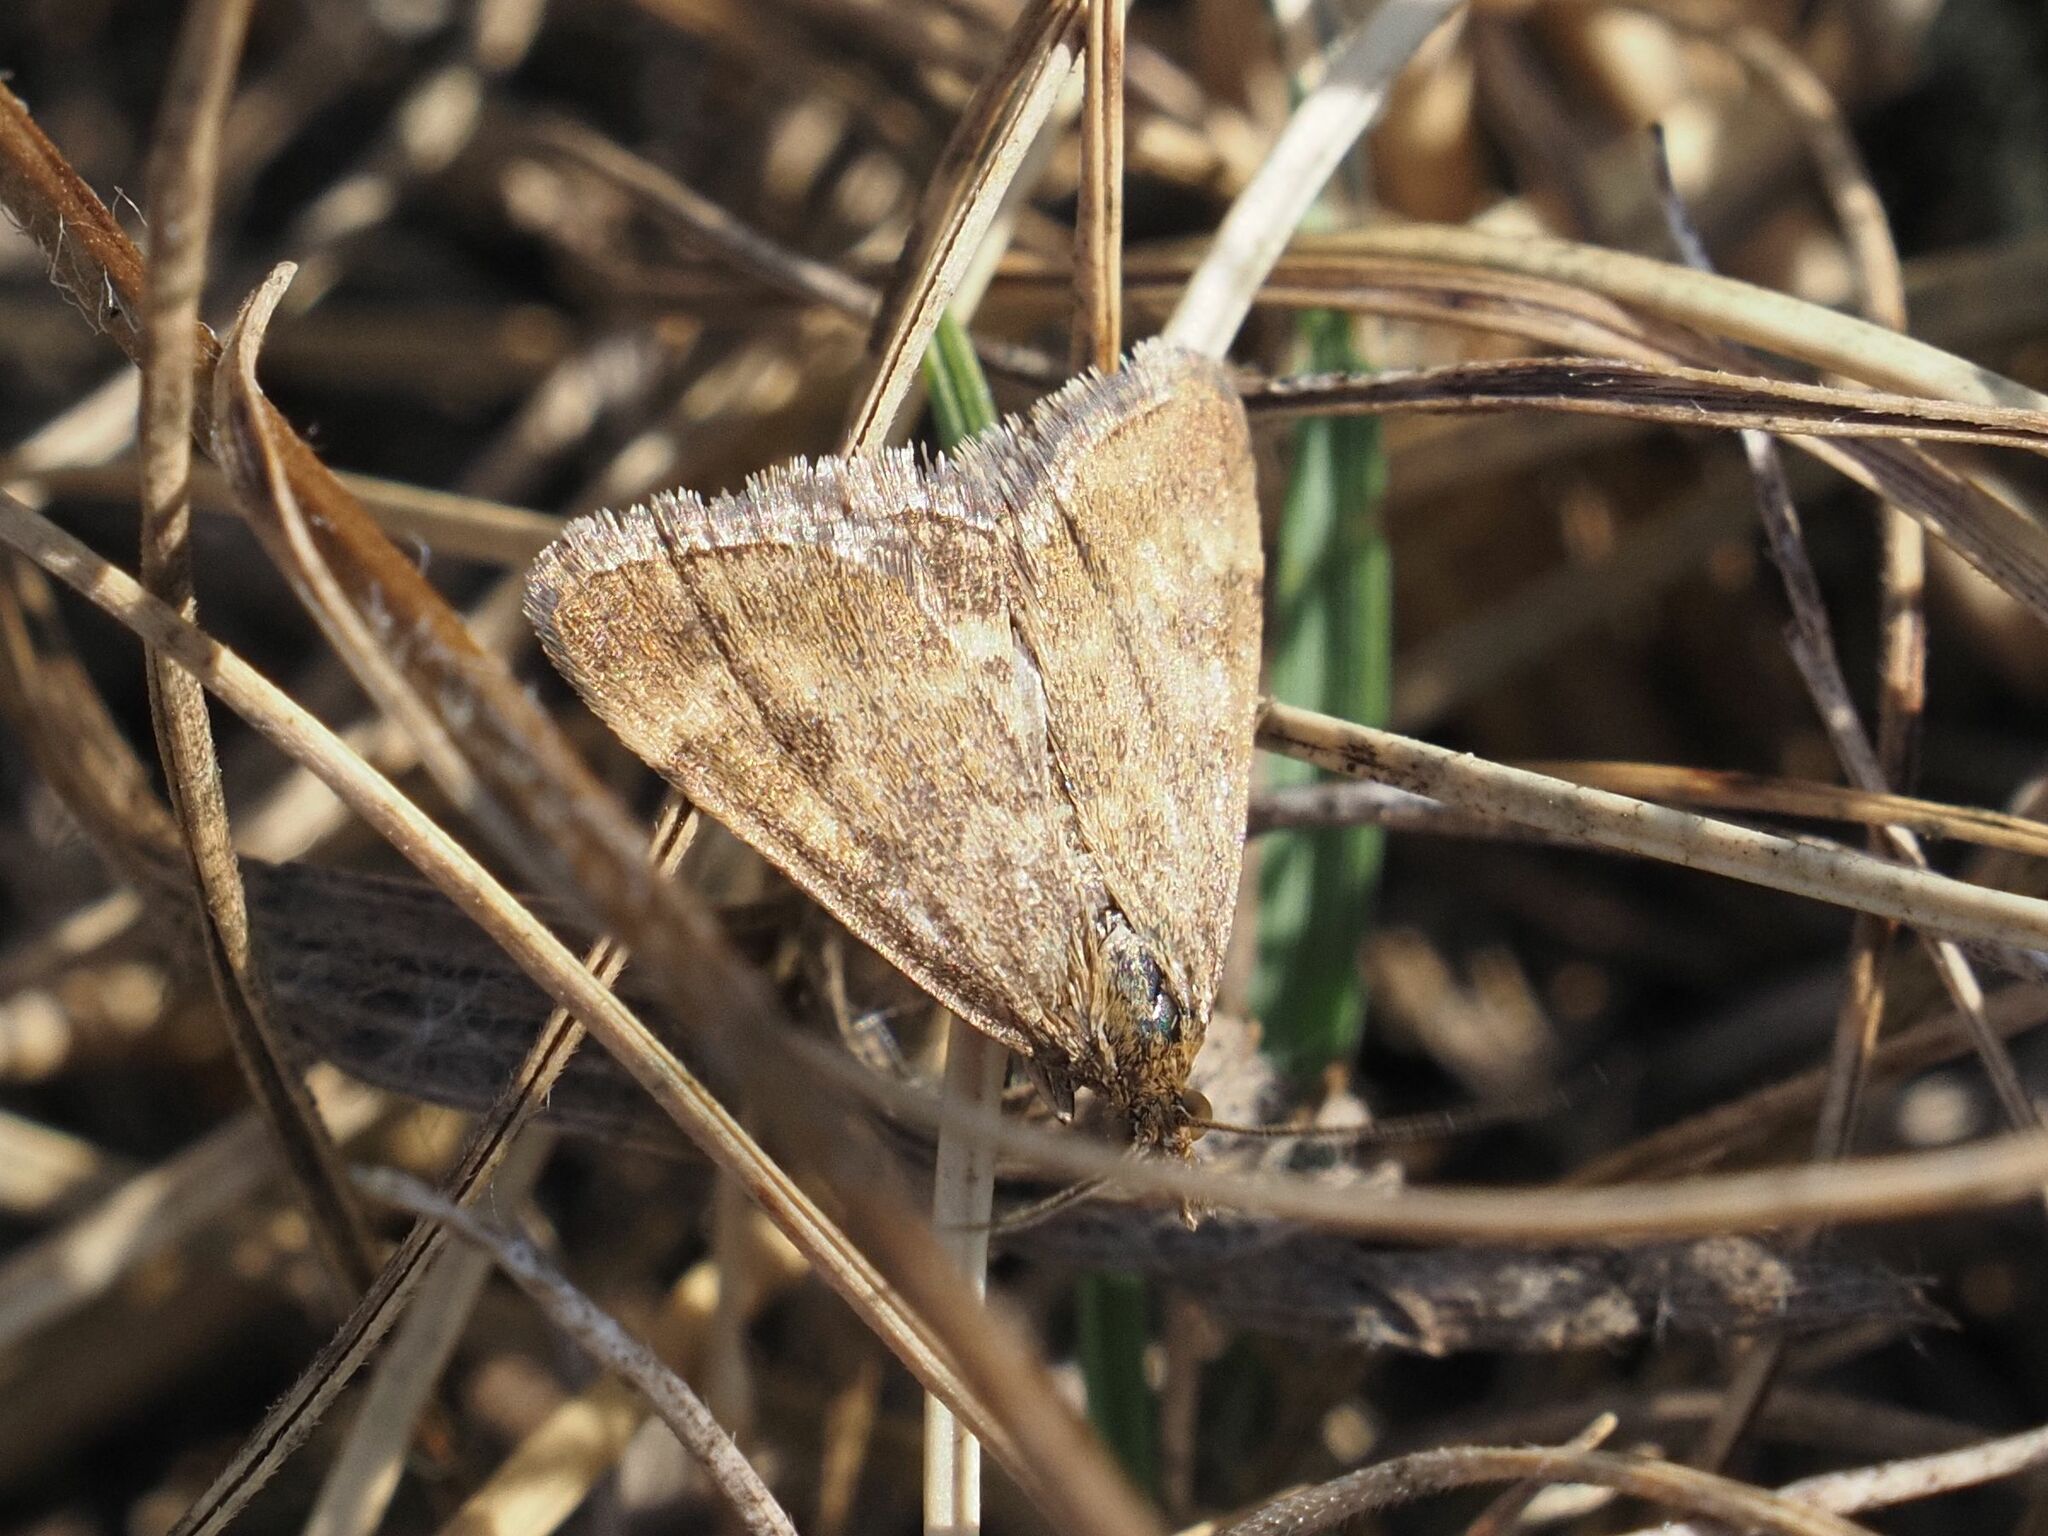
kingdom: Animalia
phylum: Arthropoda
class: Insecta
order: Lepidoptera
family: Crambidae
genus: Pyrausta
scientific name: Pyrausta despicata
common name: Straw-barred pearl
